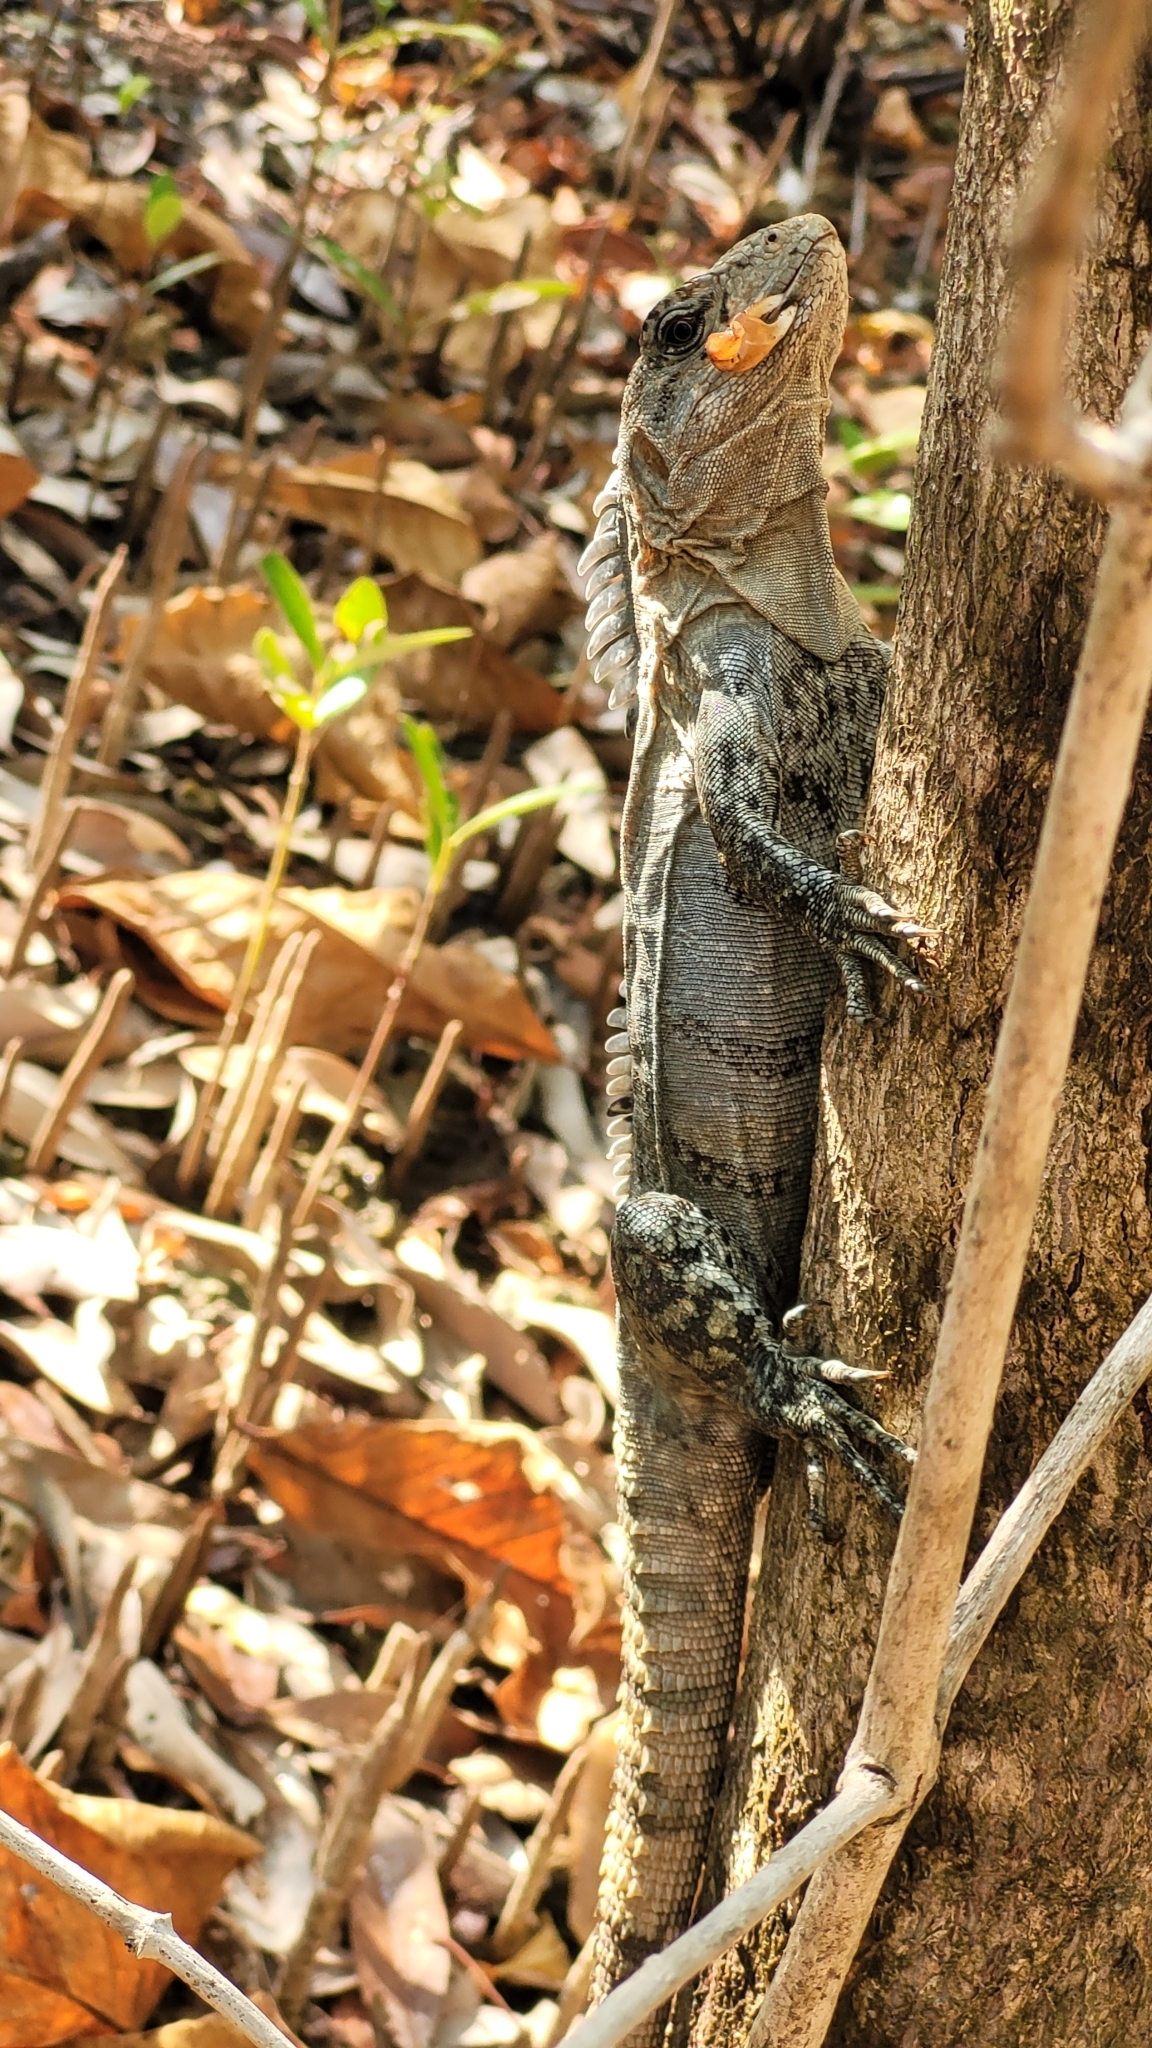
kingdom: Animalia
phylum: Chordata
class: Squamata
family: Iguanidae
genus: Ctenosaura
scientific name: Ctenosaura bakeri
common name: Utila spiny-tailed iguana
